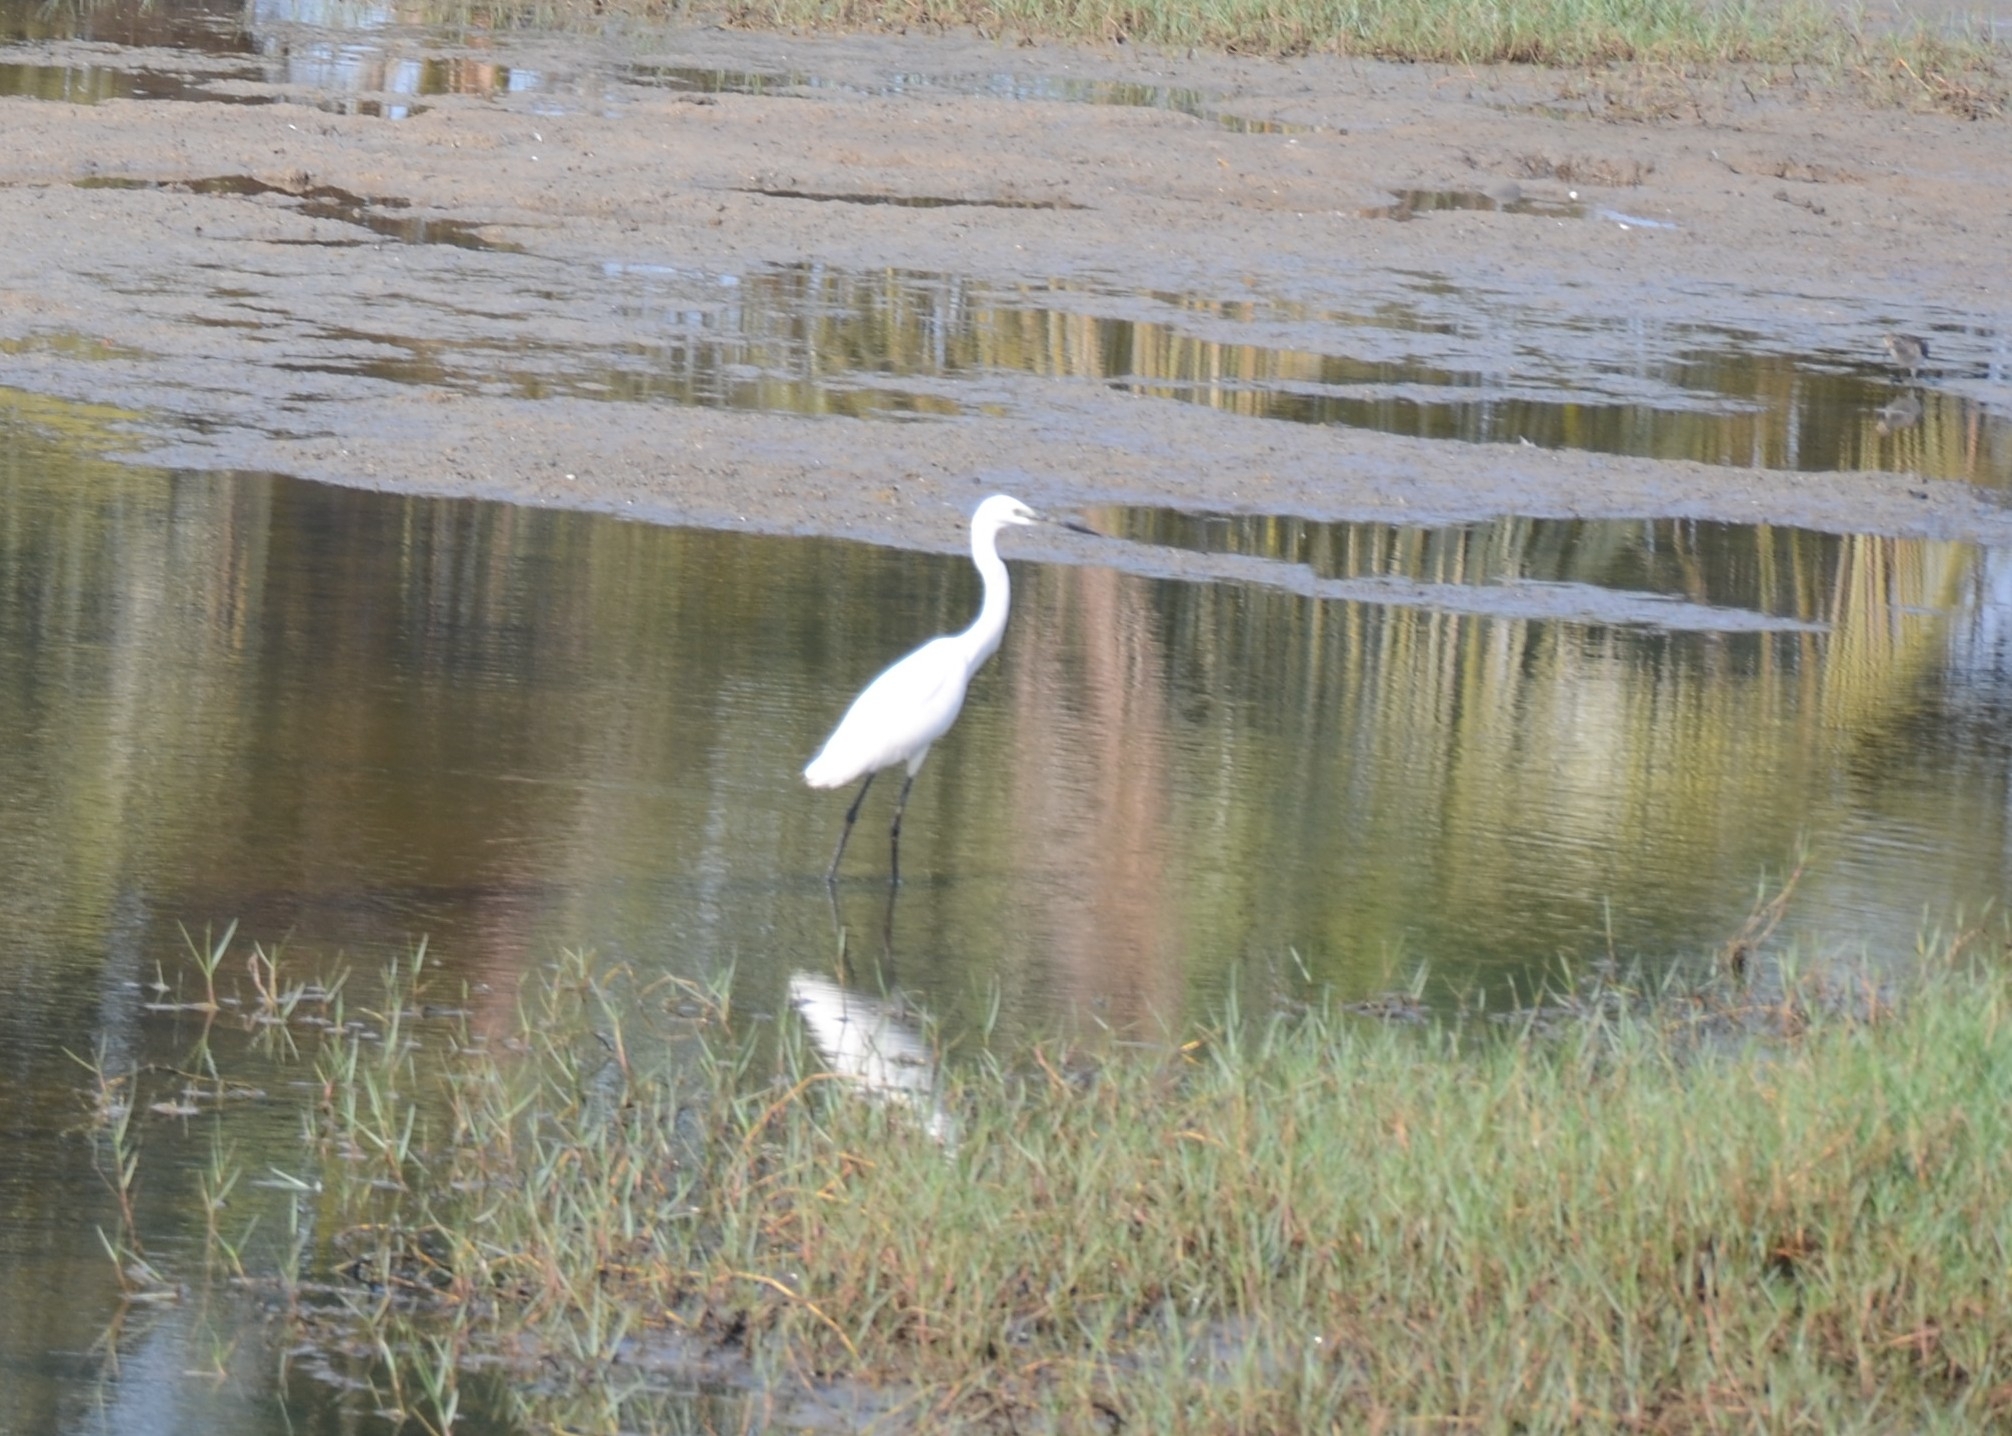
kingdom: Animalia
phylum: Chordata
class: Aves
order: Pelecaniformes
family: Ardeidae
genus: Egretta
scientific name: Egretta garzetta
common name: Little egret
